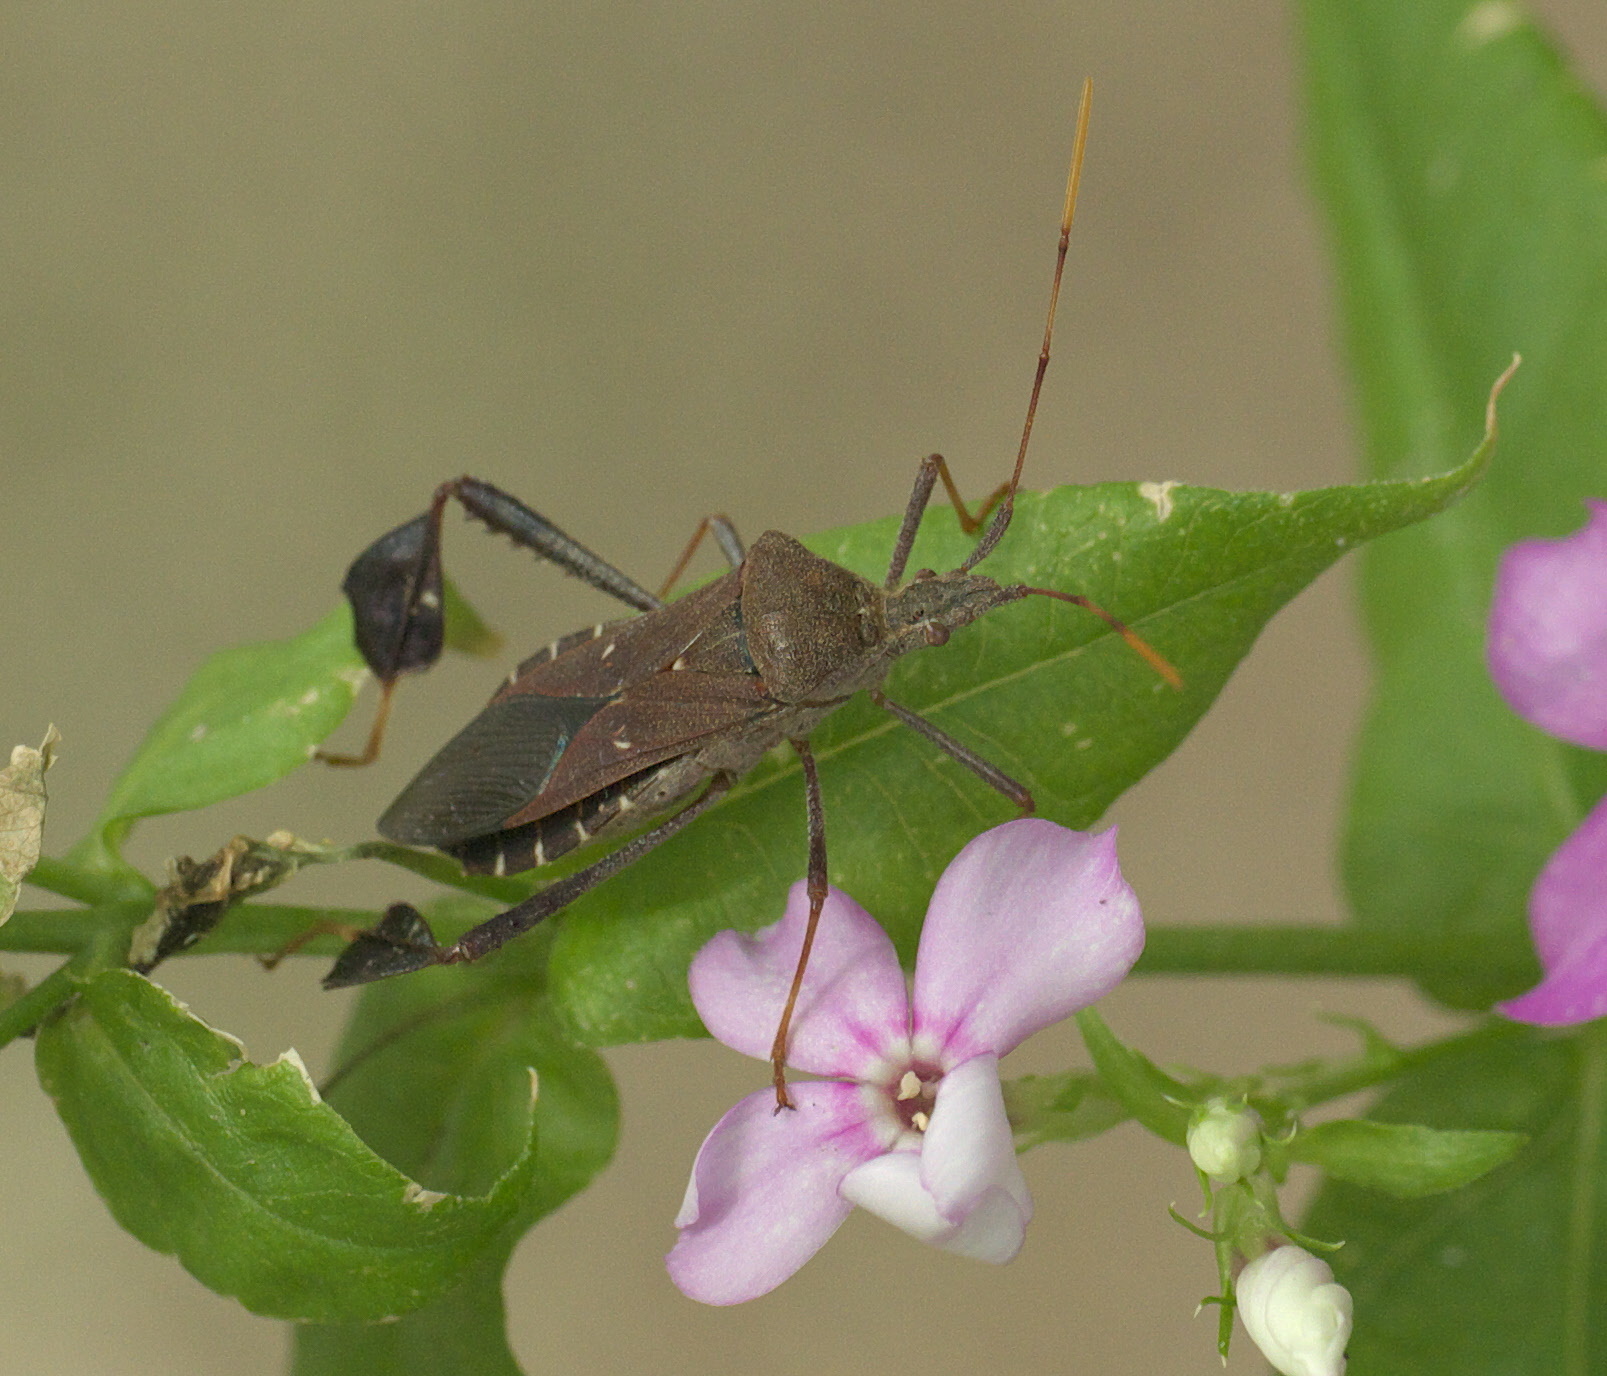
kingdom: Animalia
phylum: Arthropoda
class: Insecta
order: Hemiptera
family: Coreidae
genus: Leptoglossus
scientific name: Leptoglossus oppositus
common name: Northern leaf-footed bug
